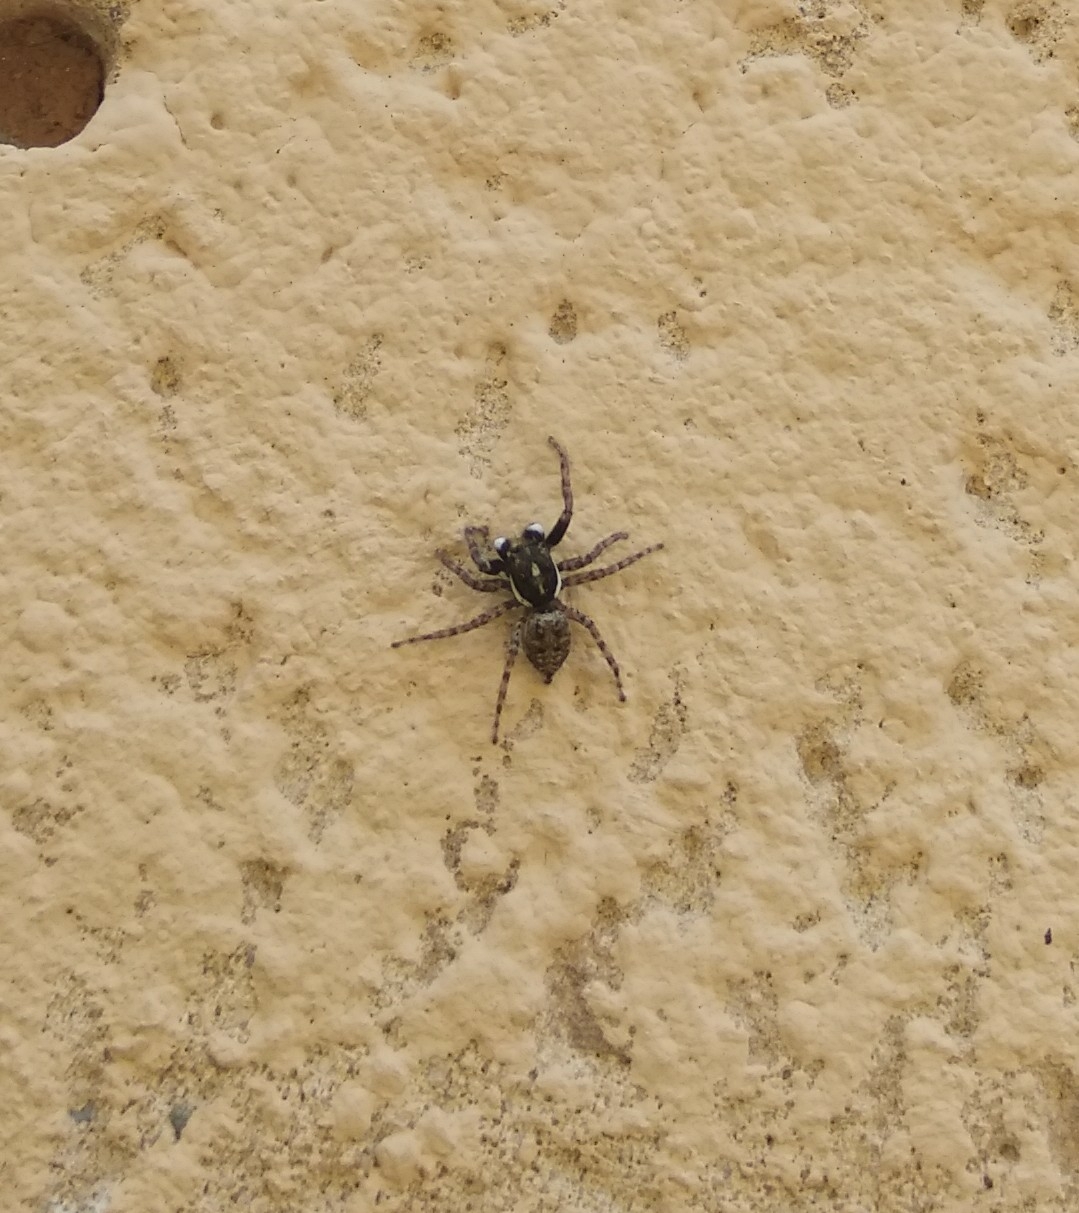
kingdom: Animalia
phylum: Arthropoda
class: Arachnida
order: Araneae
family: Salticidae
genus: Menemerus
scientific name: Menemerus semilimbatus
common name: Jumping spider
